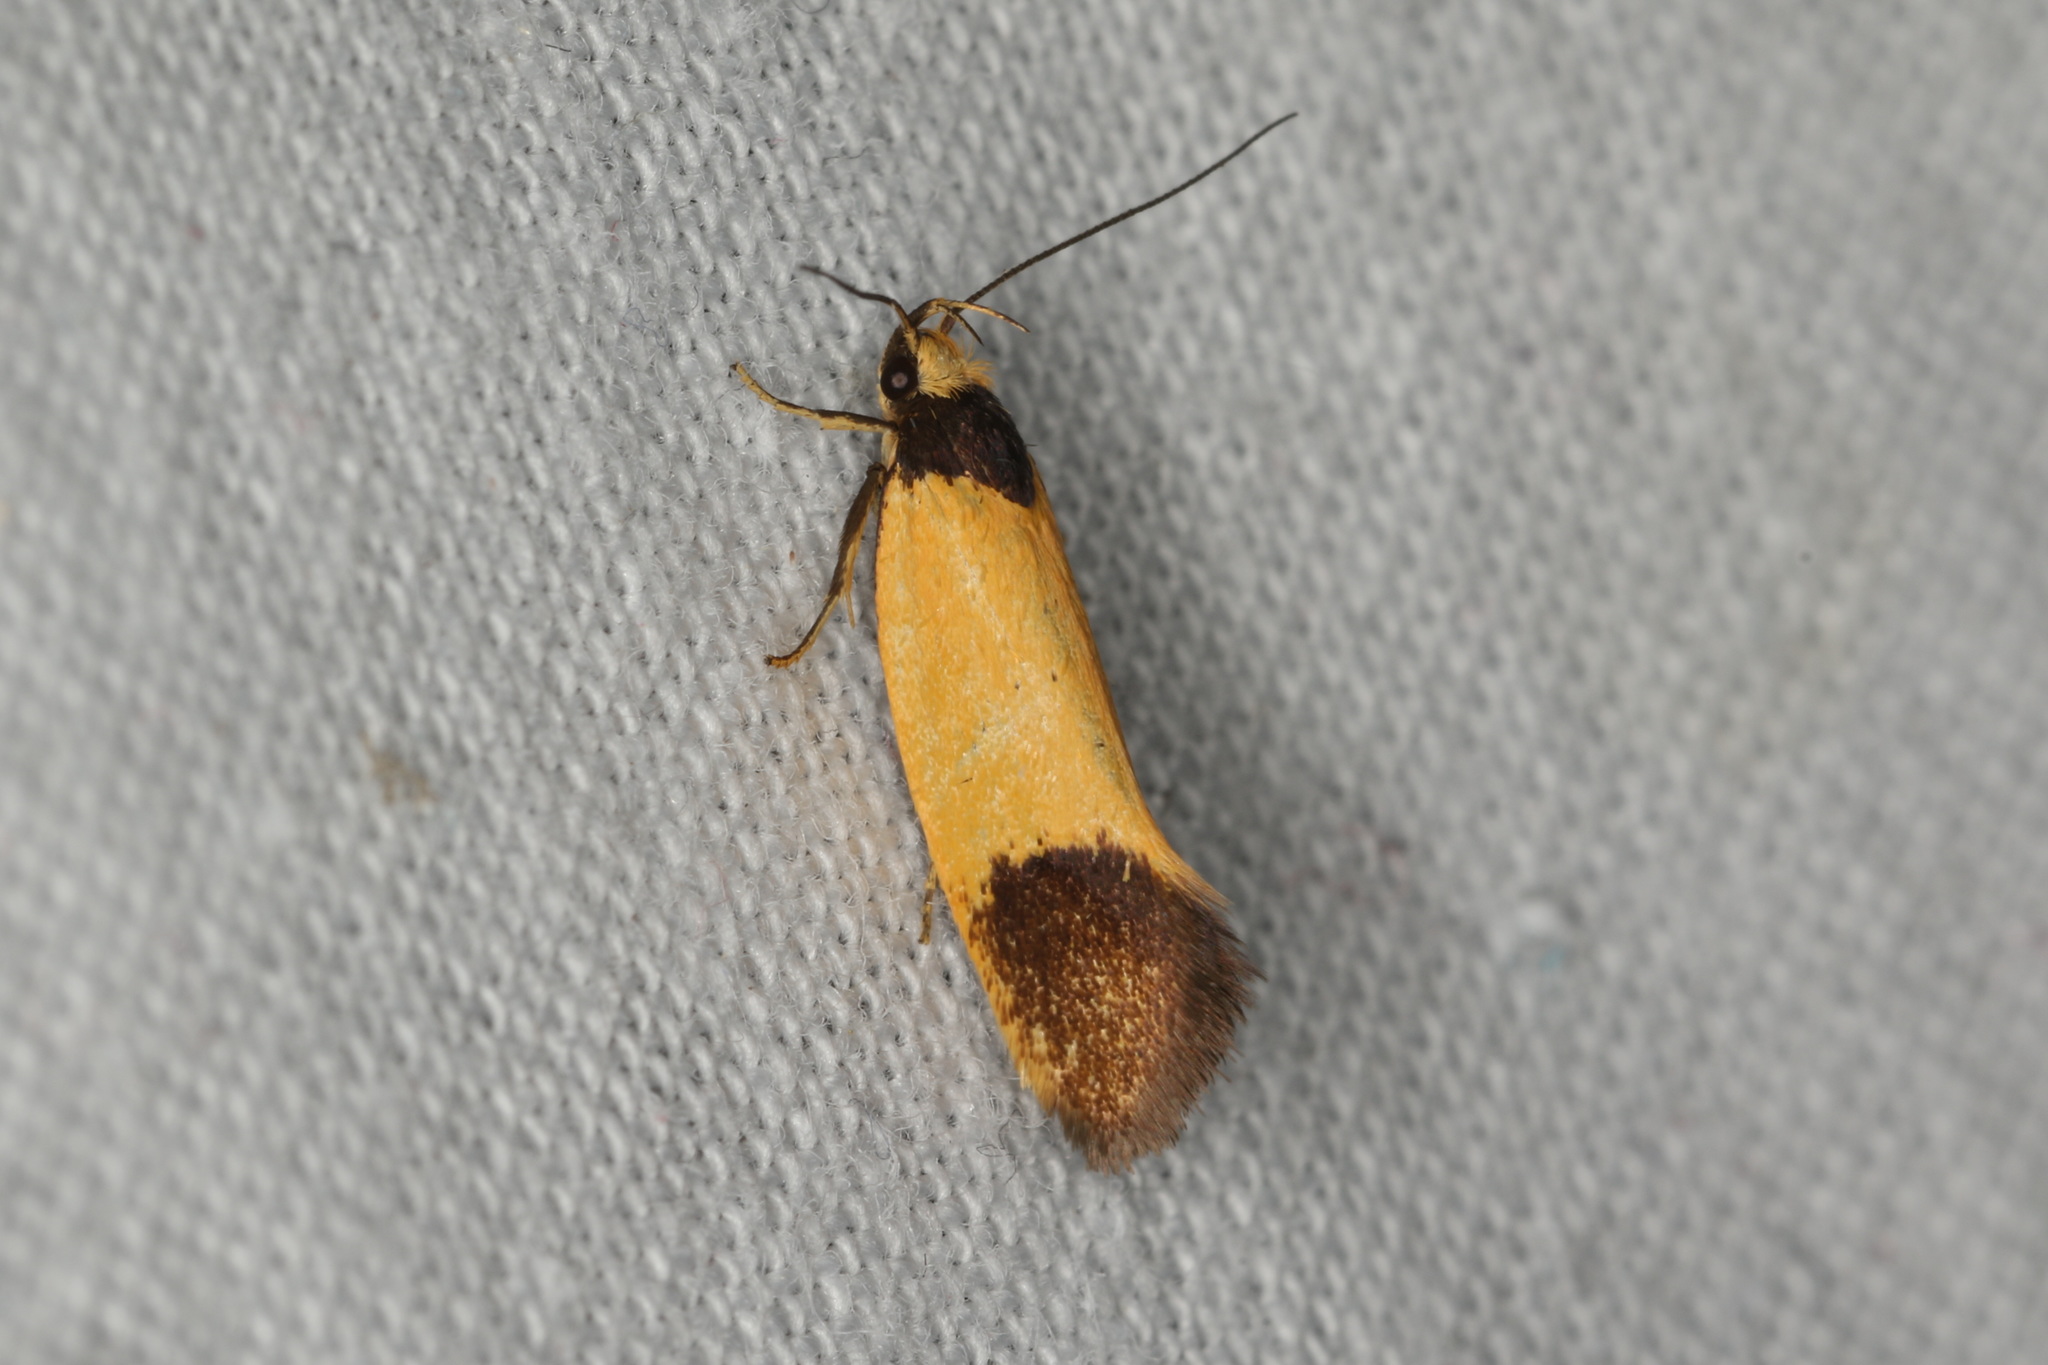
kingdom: Animalia
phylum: Arthropoda
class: Insecta
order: Lepidoptera
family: Oecophoridae
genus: Merocroca
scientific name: Merocroca automima
